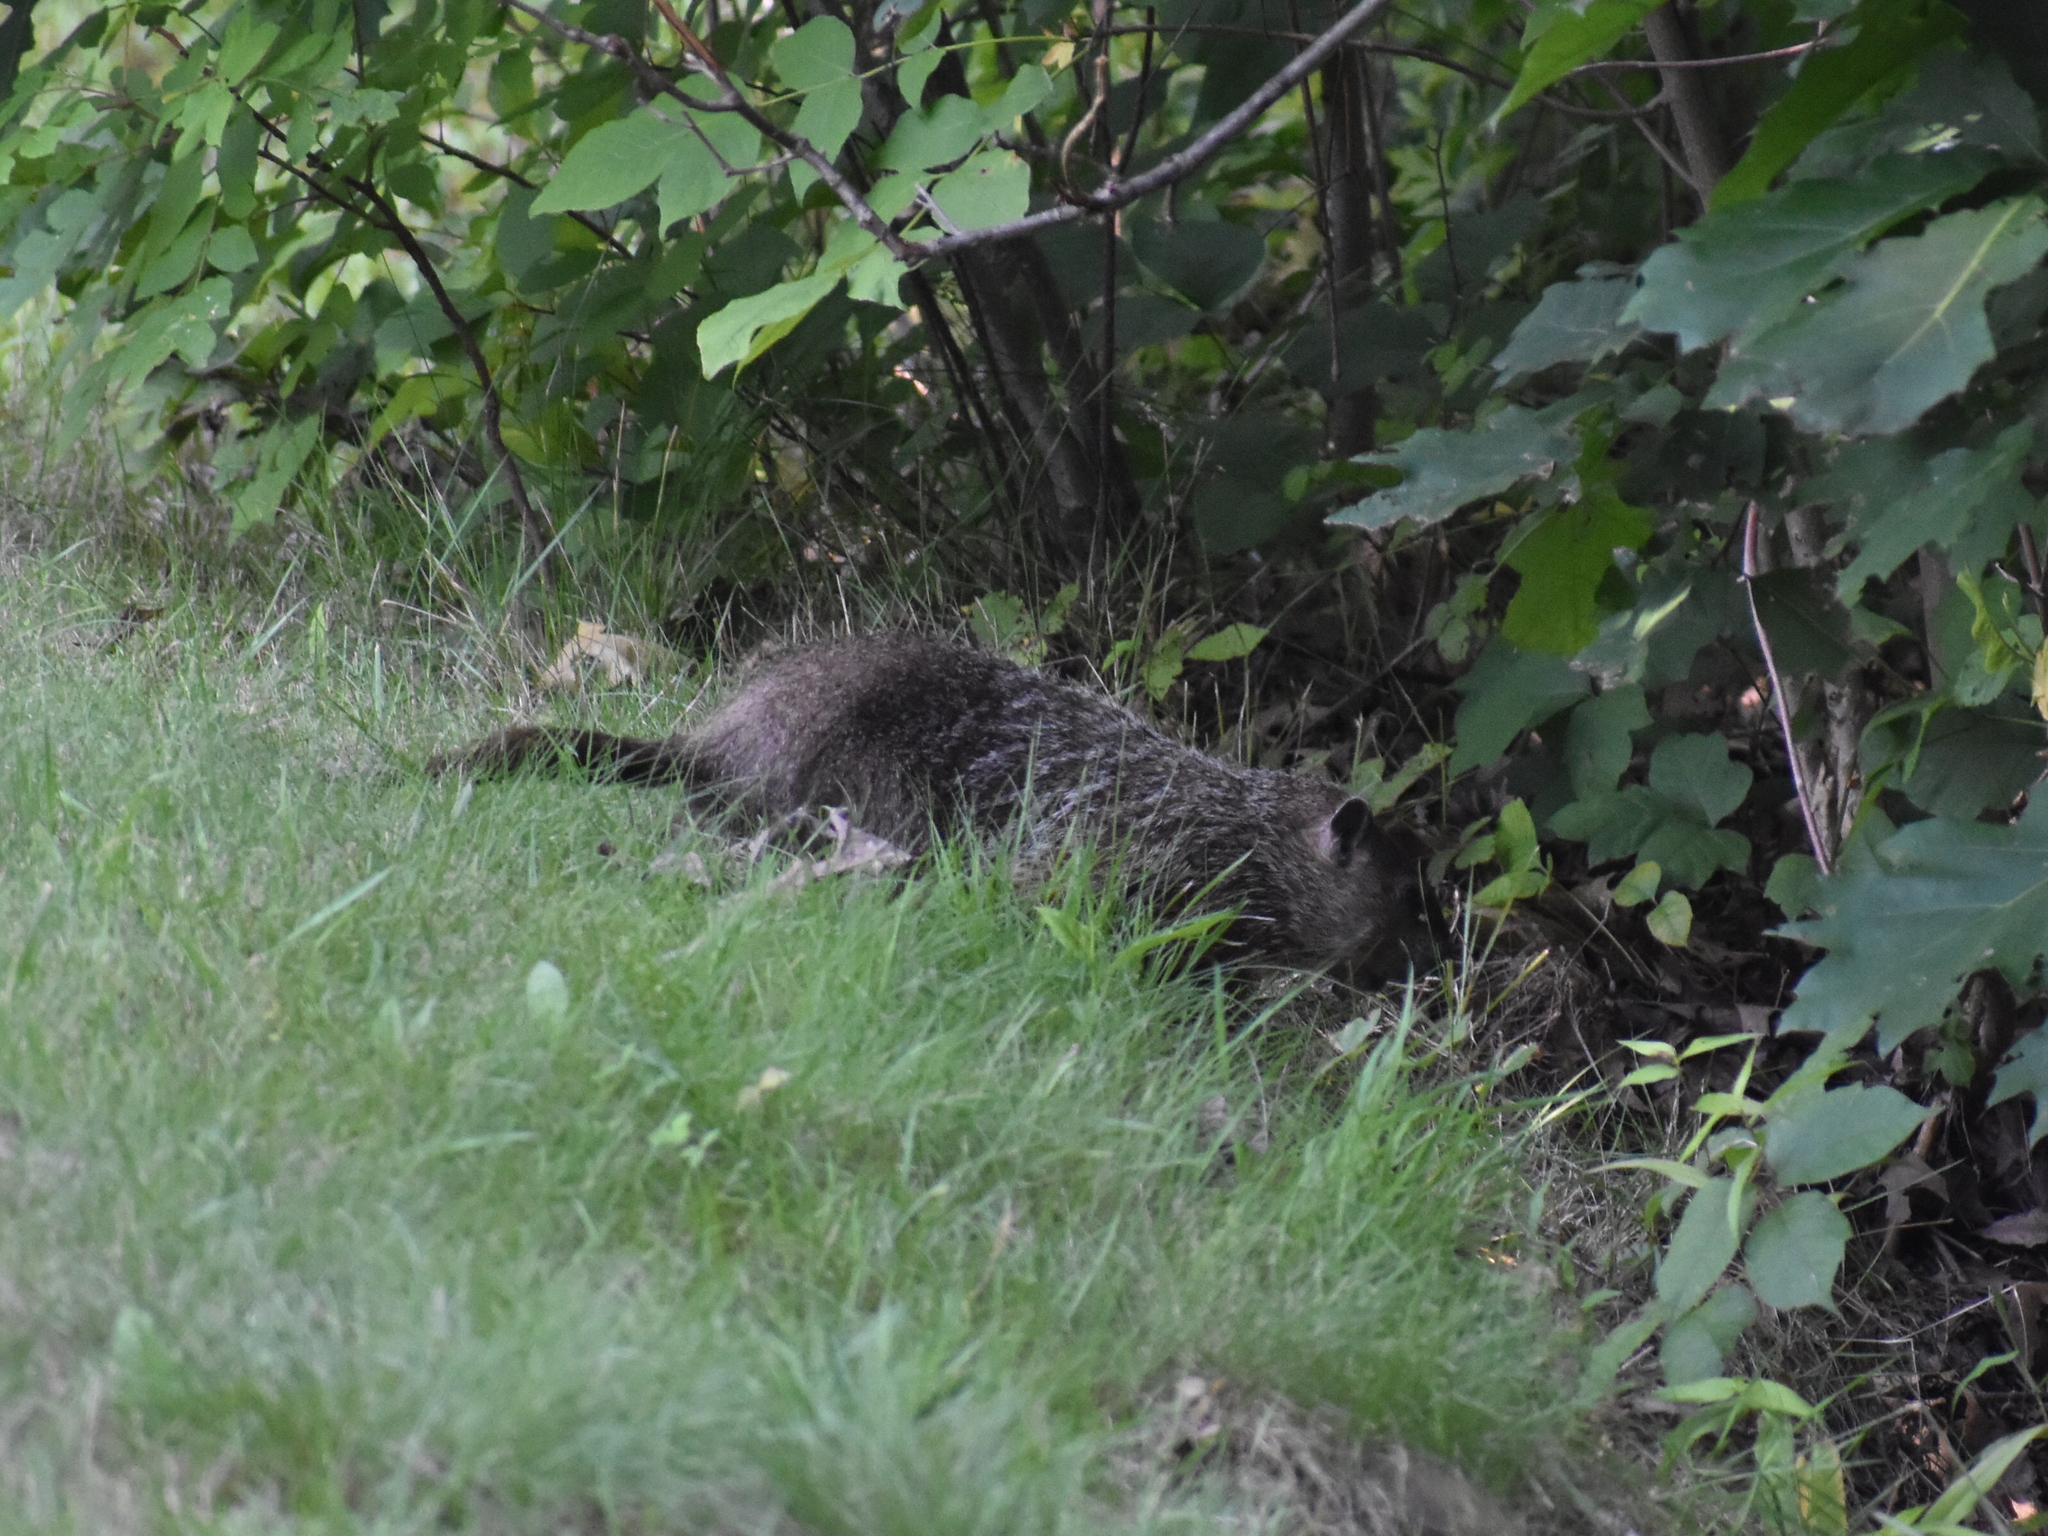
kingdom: Animalia
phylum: Chordata
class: Mammalia
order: Rodentia
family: Sciuridae
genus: Marmota
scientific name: Marmota monax
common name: Groundhog
